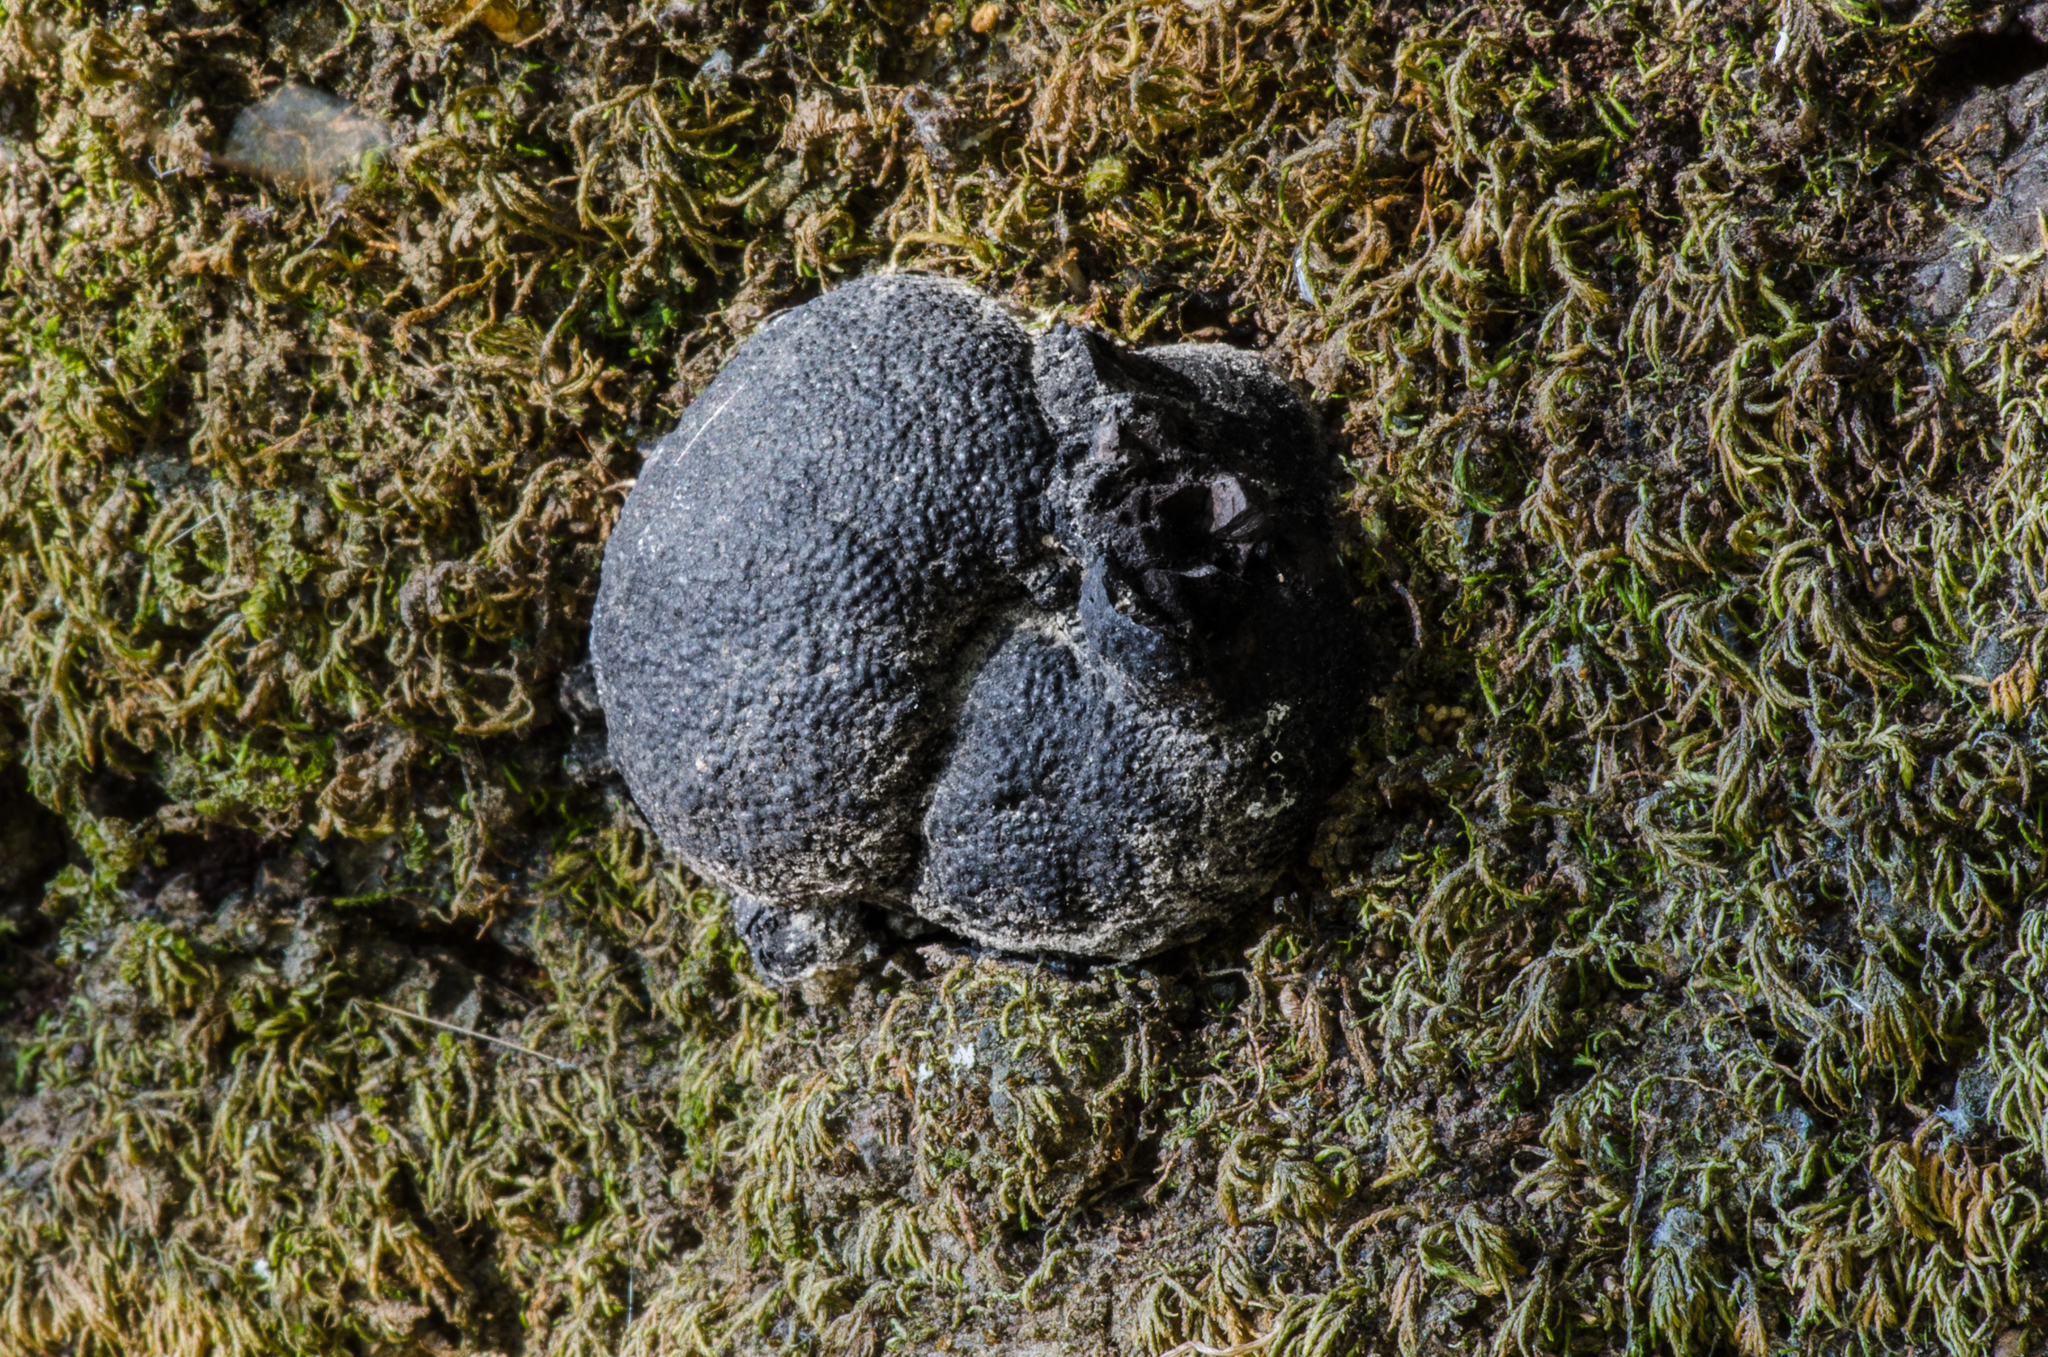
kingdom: Fungi
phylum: Ascomycota
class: Sordariomycetes
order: Xylariales
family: Hypoxylaceae
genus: Annulohypoxylon
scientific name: Annulohypoxylon thouarsianum
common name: Cramp balls
